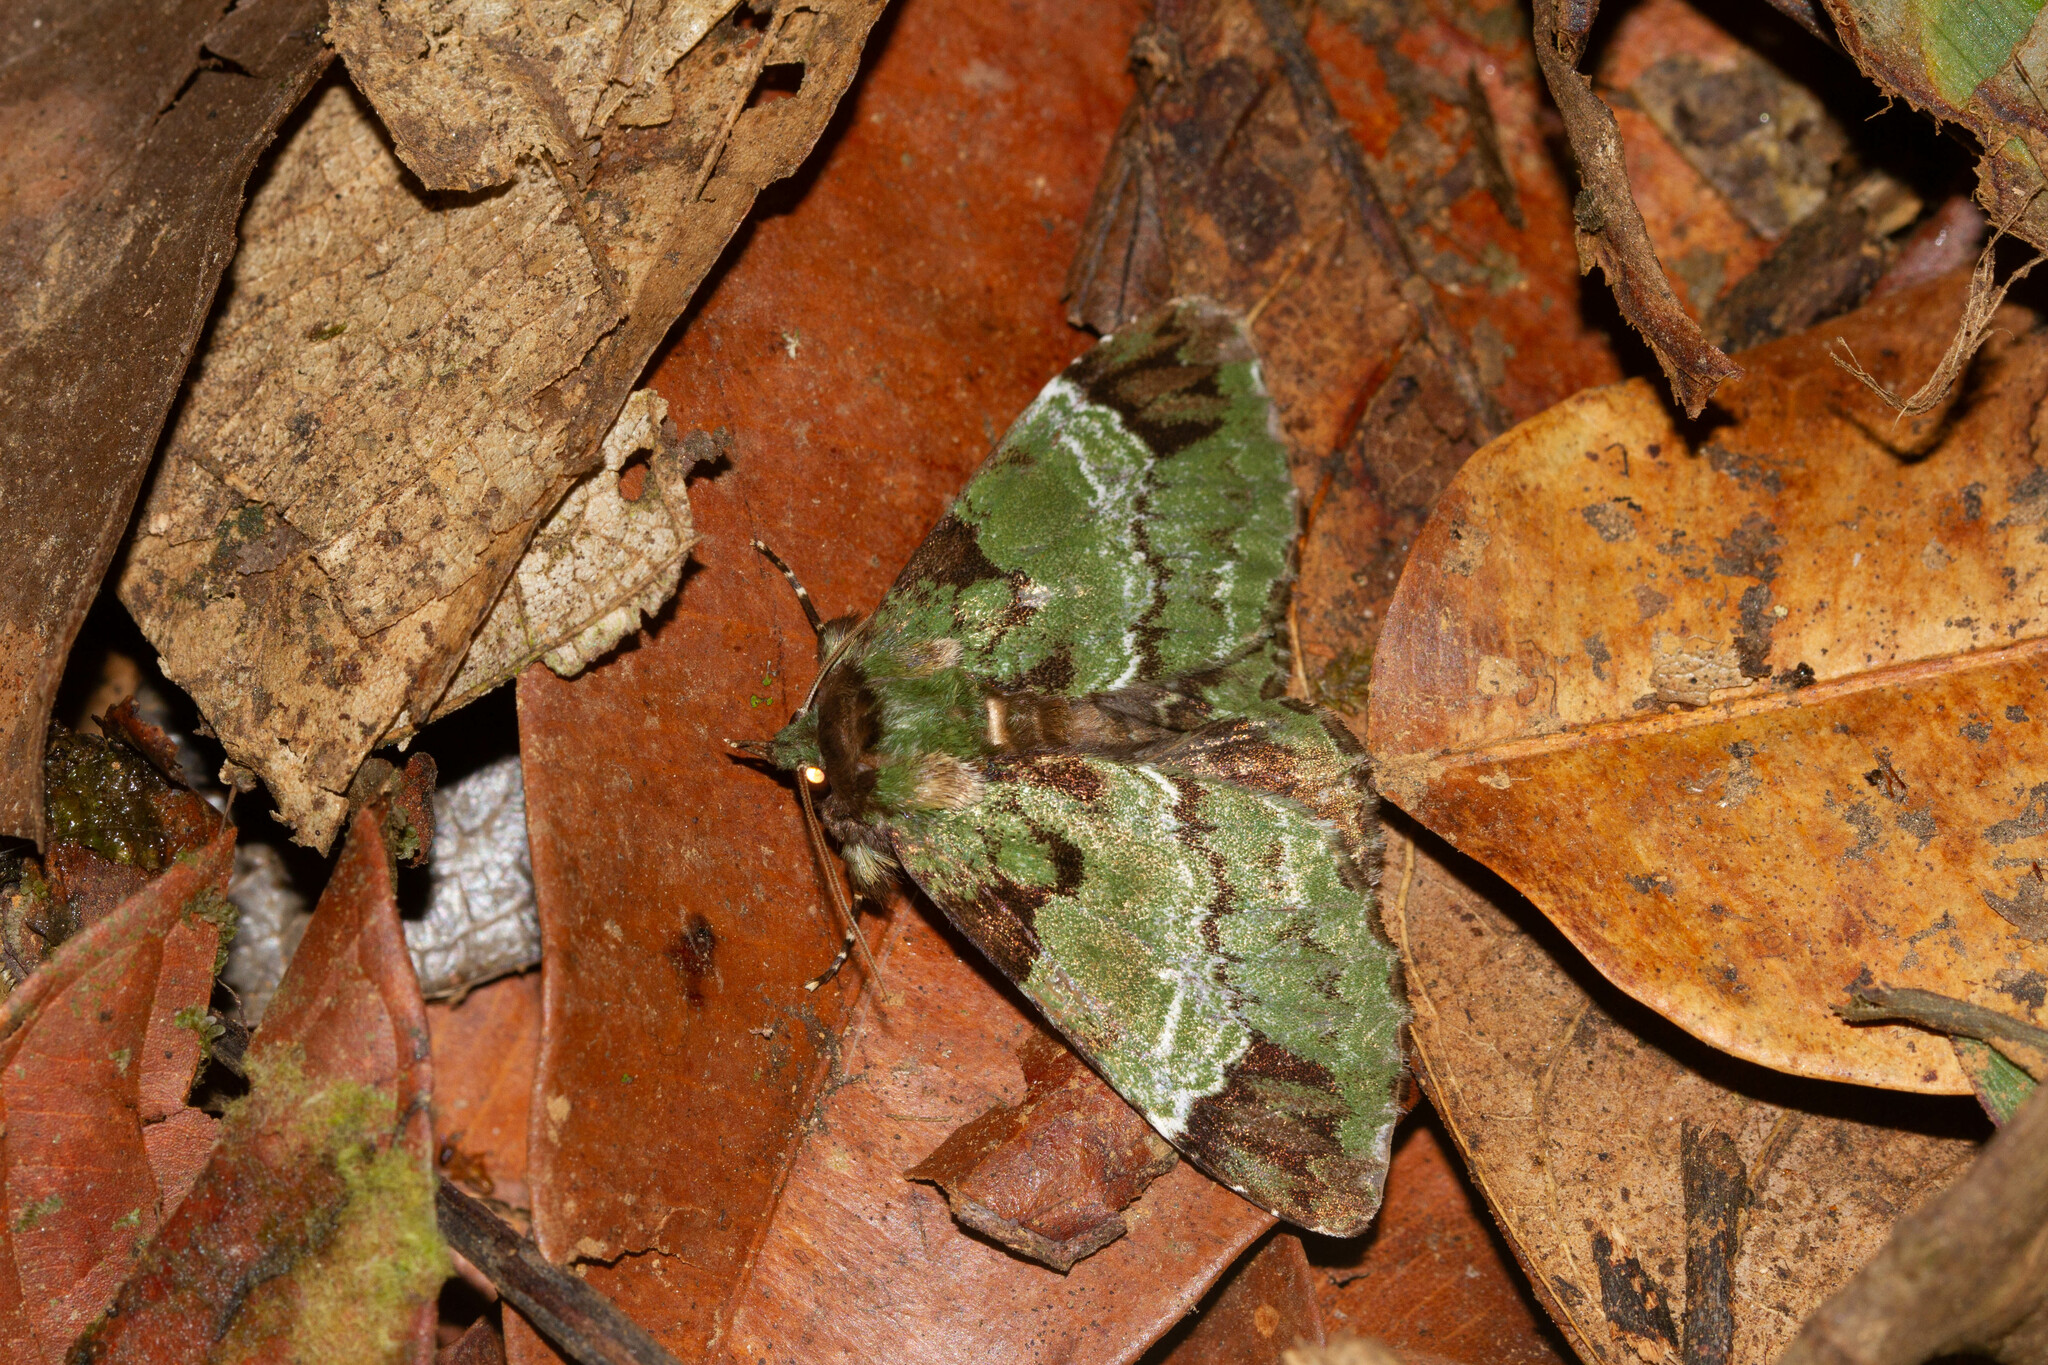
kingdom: Animalia
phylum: Arthropoda
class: Insecta
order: Lepidoptera
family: Erebidae
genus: Pachyplastis
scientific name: Pachyplastis apicalis
